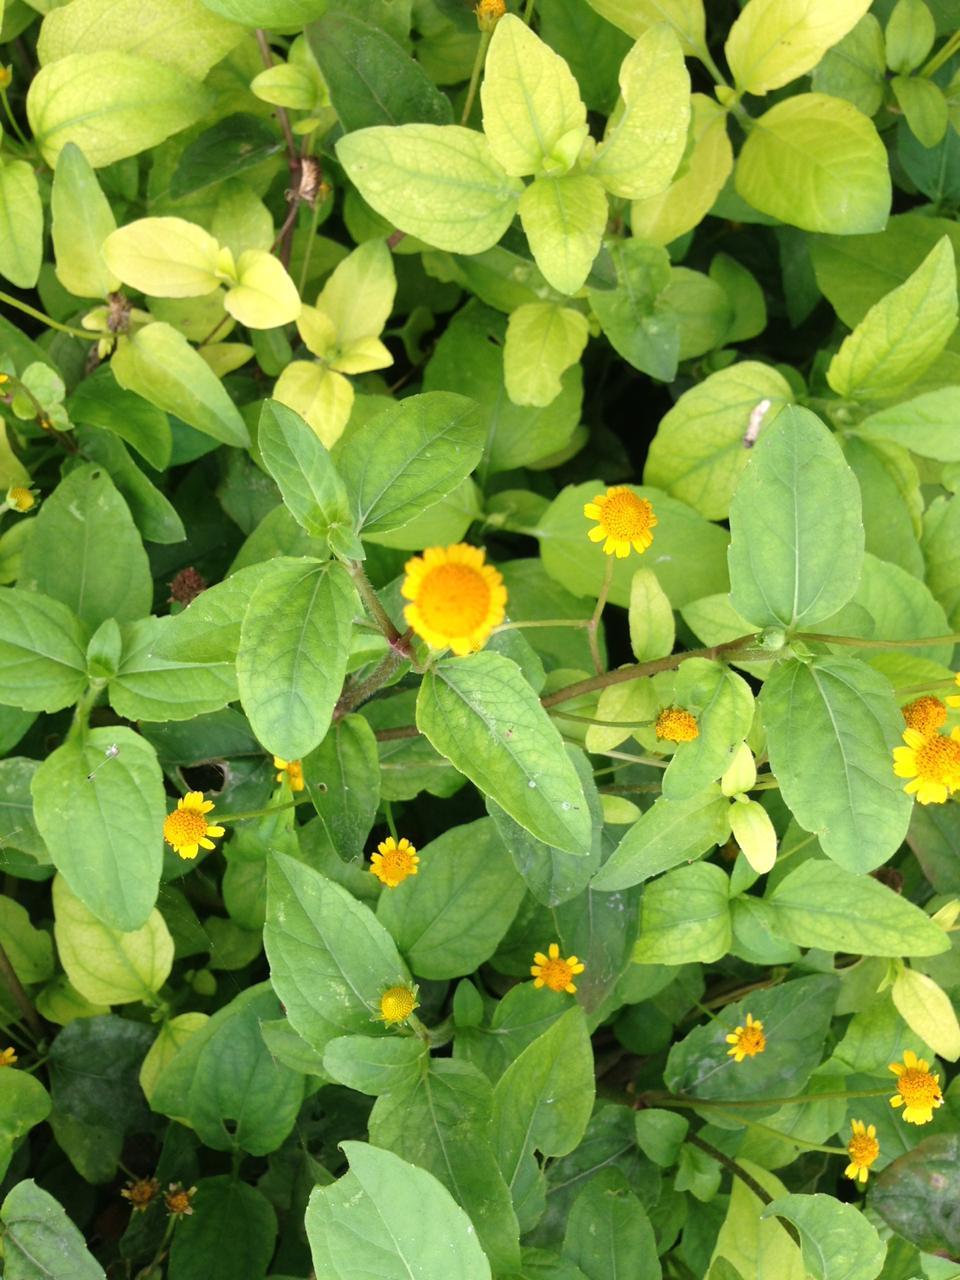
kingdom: Plantae
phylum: Tracheophyta
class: Magnoliopsida
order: Asterales
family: Asteraceae
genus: Acmella
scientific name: Acmella repens
